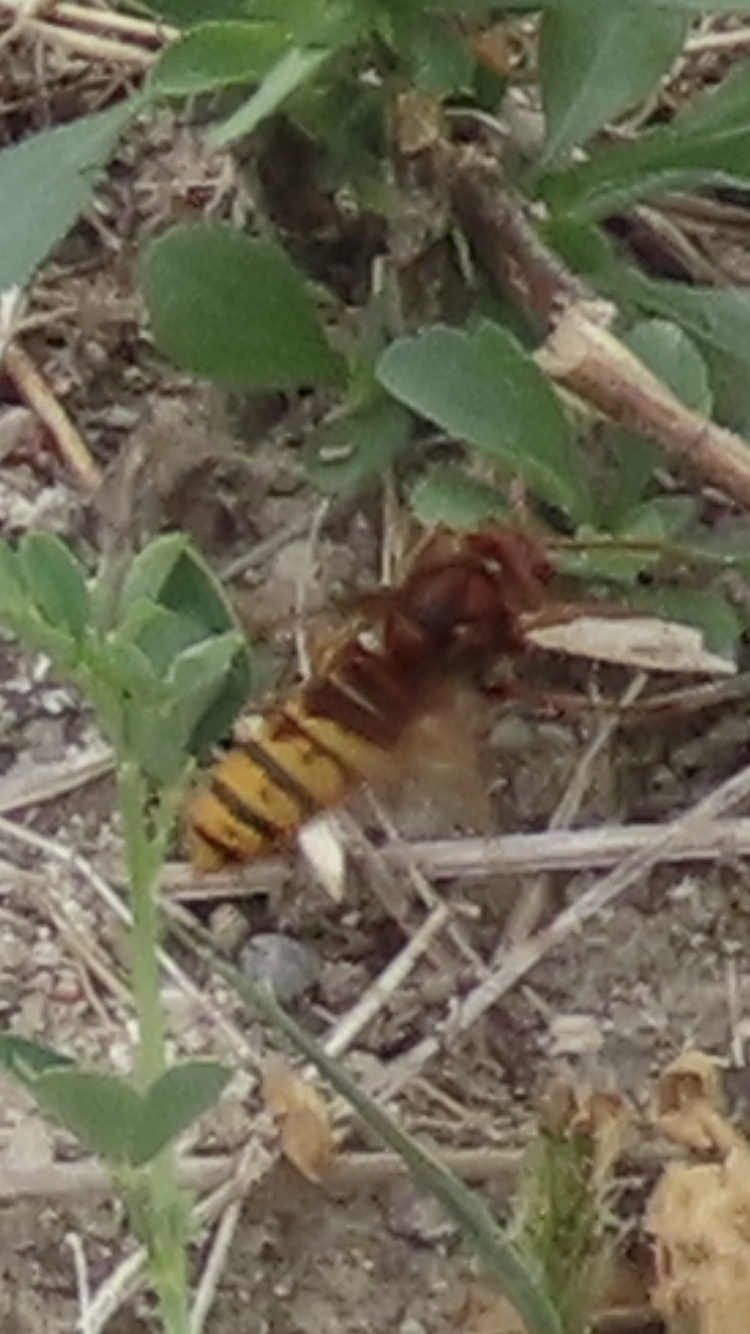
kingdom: Animalia
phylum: Arthropoda
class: Insecta
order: Hymenoptera
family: Vespidae
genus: Vespa
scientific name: Vespa crabro
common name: Hornet
